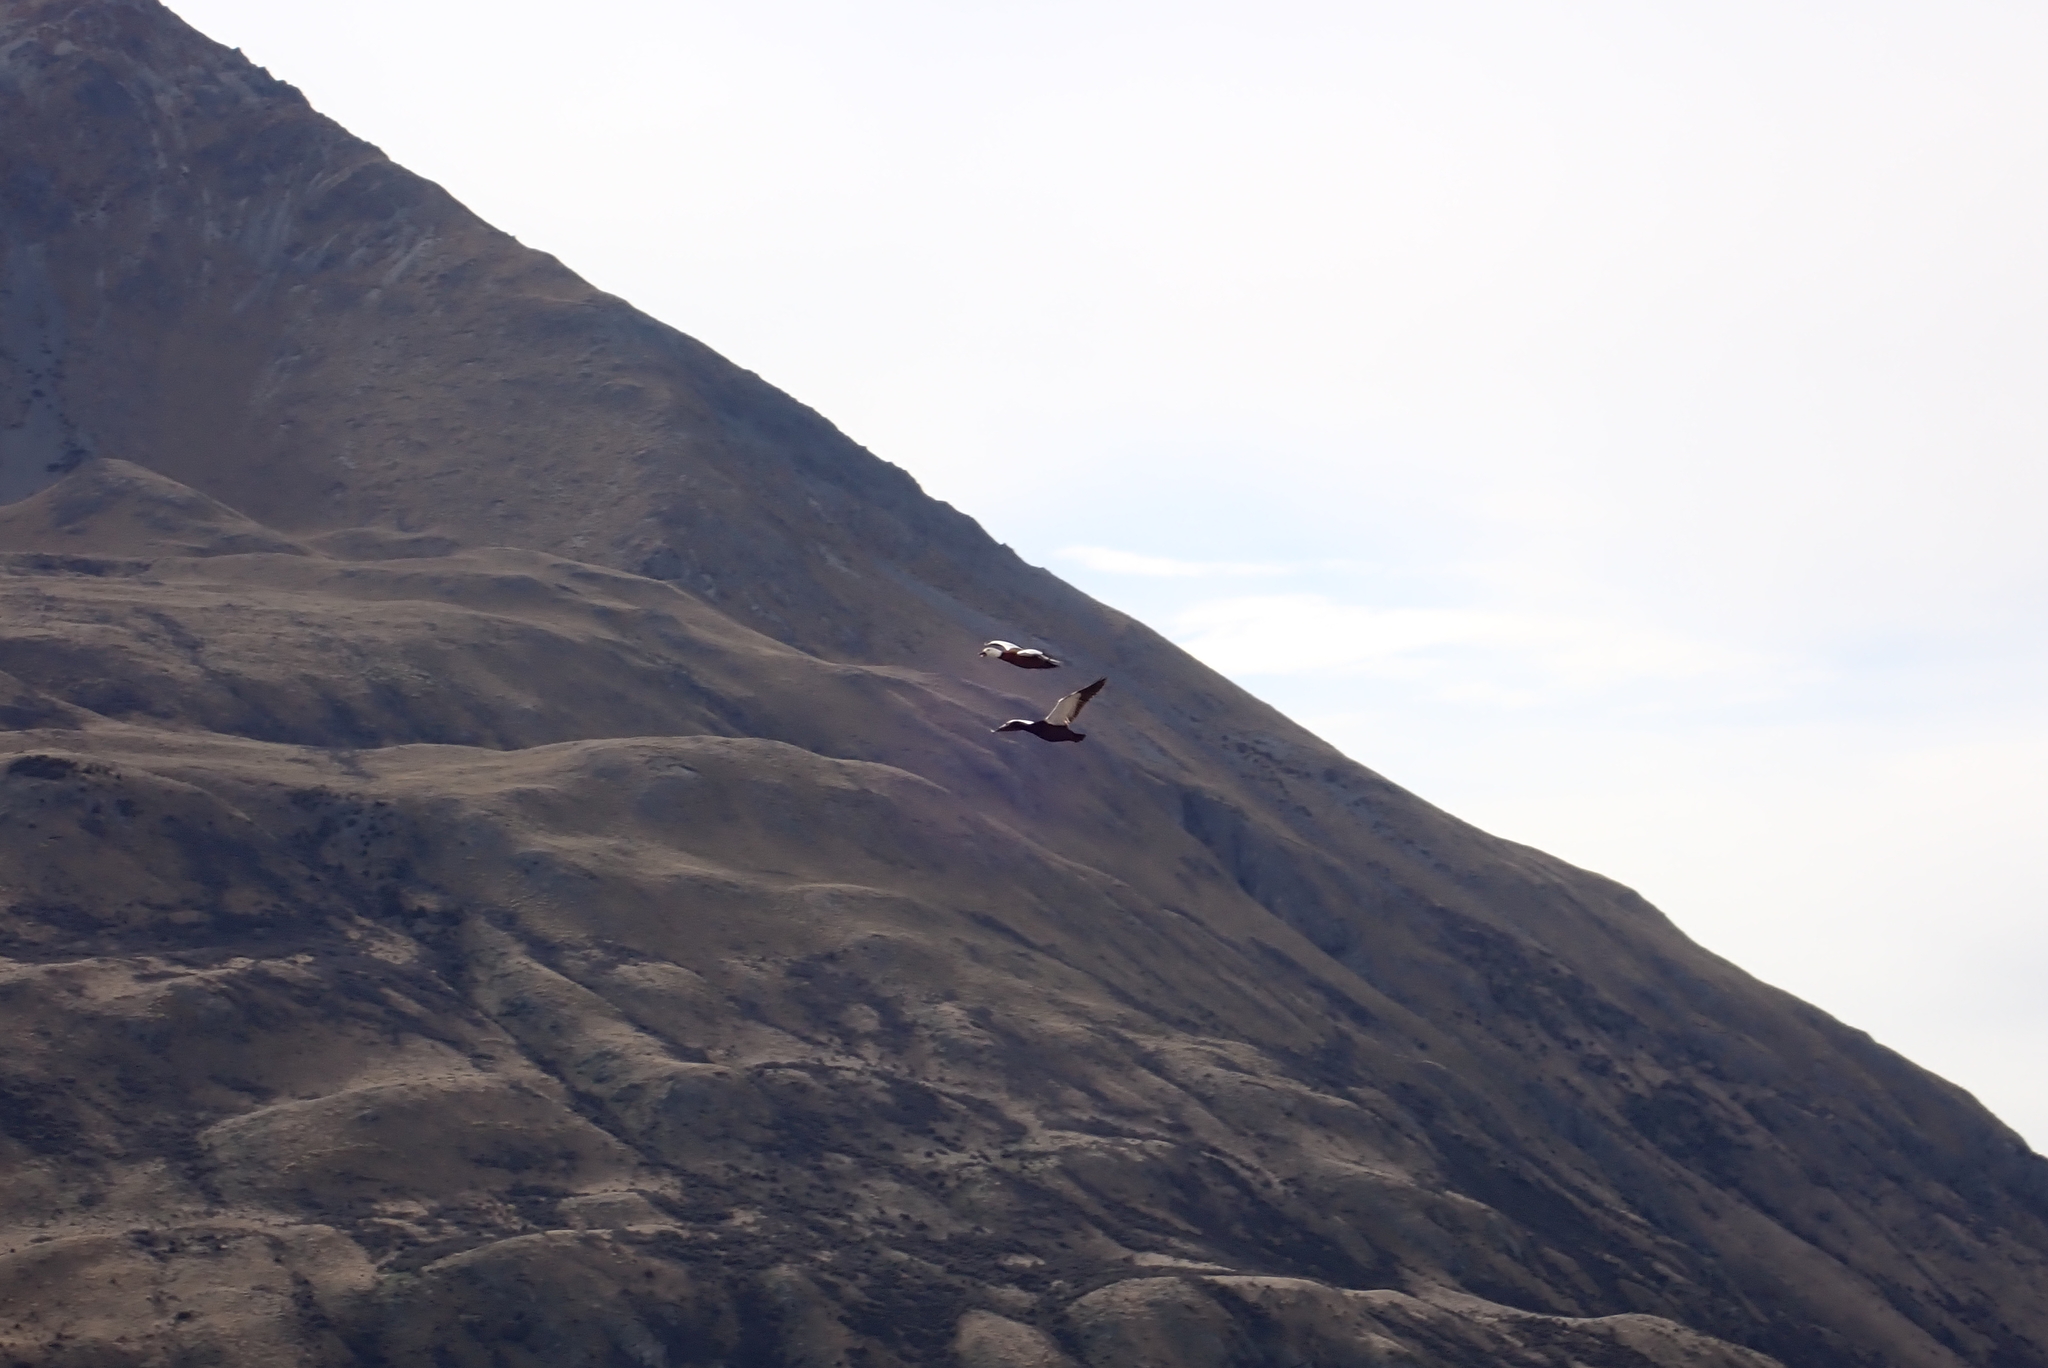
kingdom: Animalia
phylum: Chordata
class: Aves
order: Anseriformes
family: Anatidae
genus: Tadorna
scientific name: Tadorna variegata
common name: Paradise shelduck
